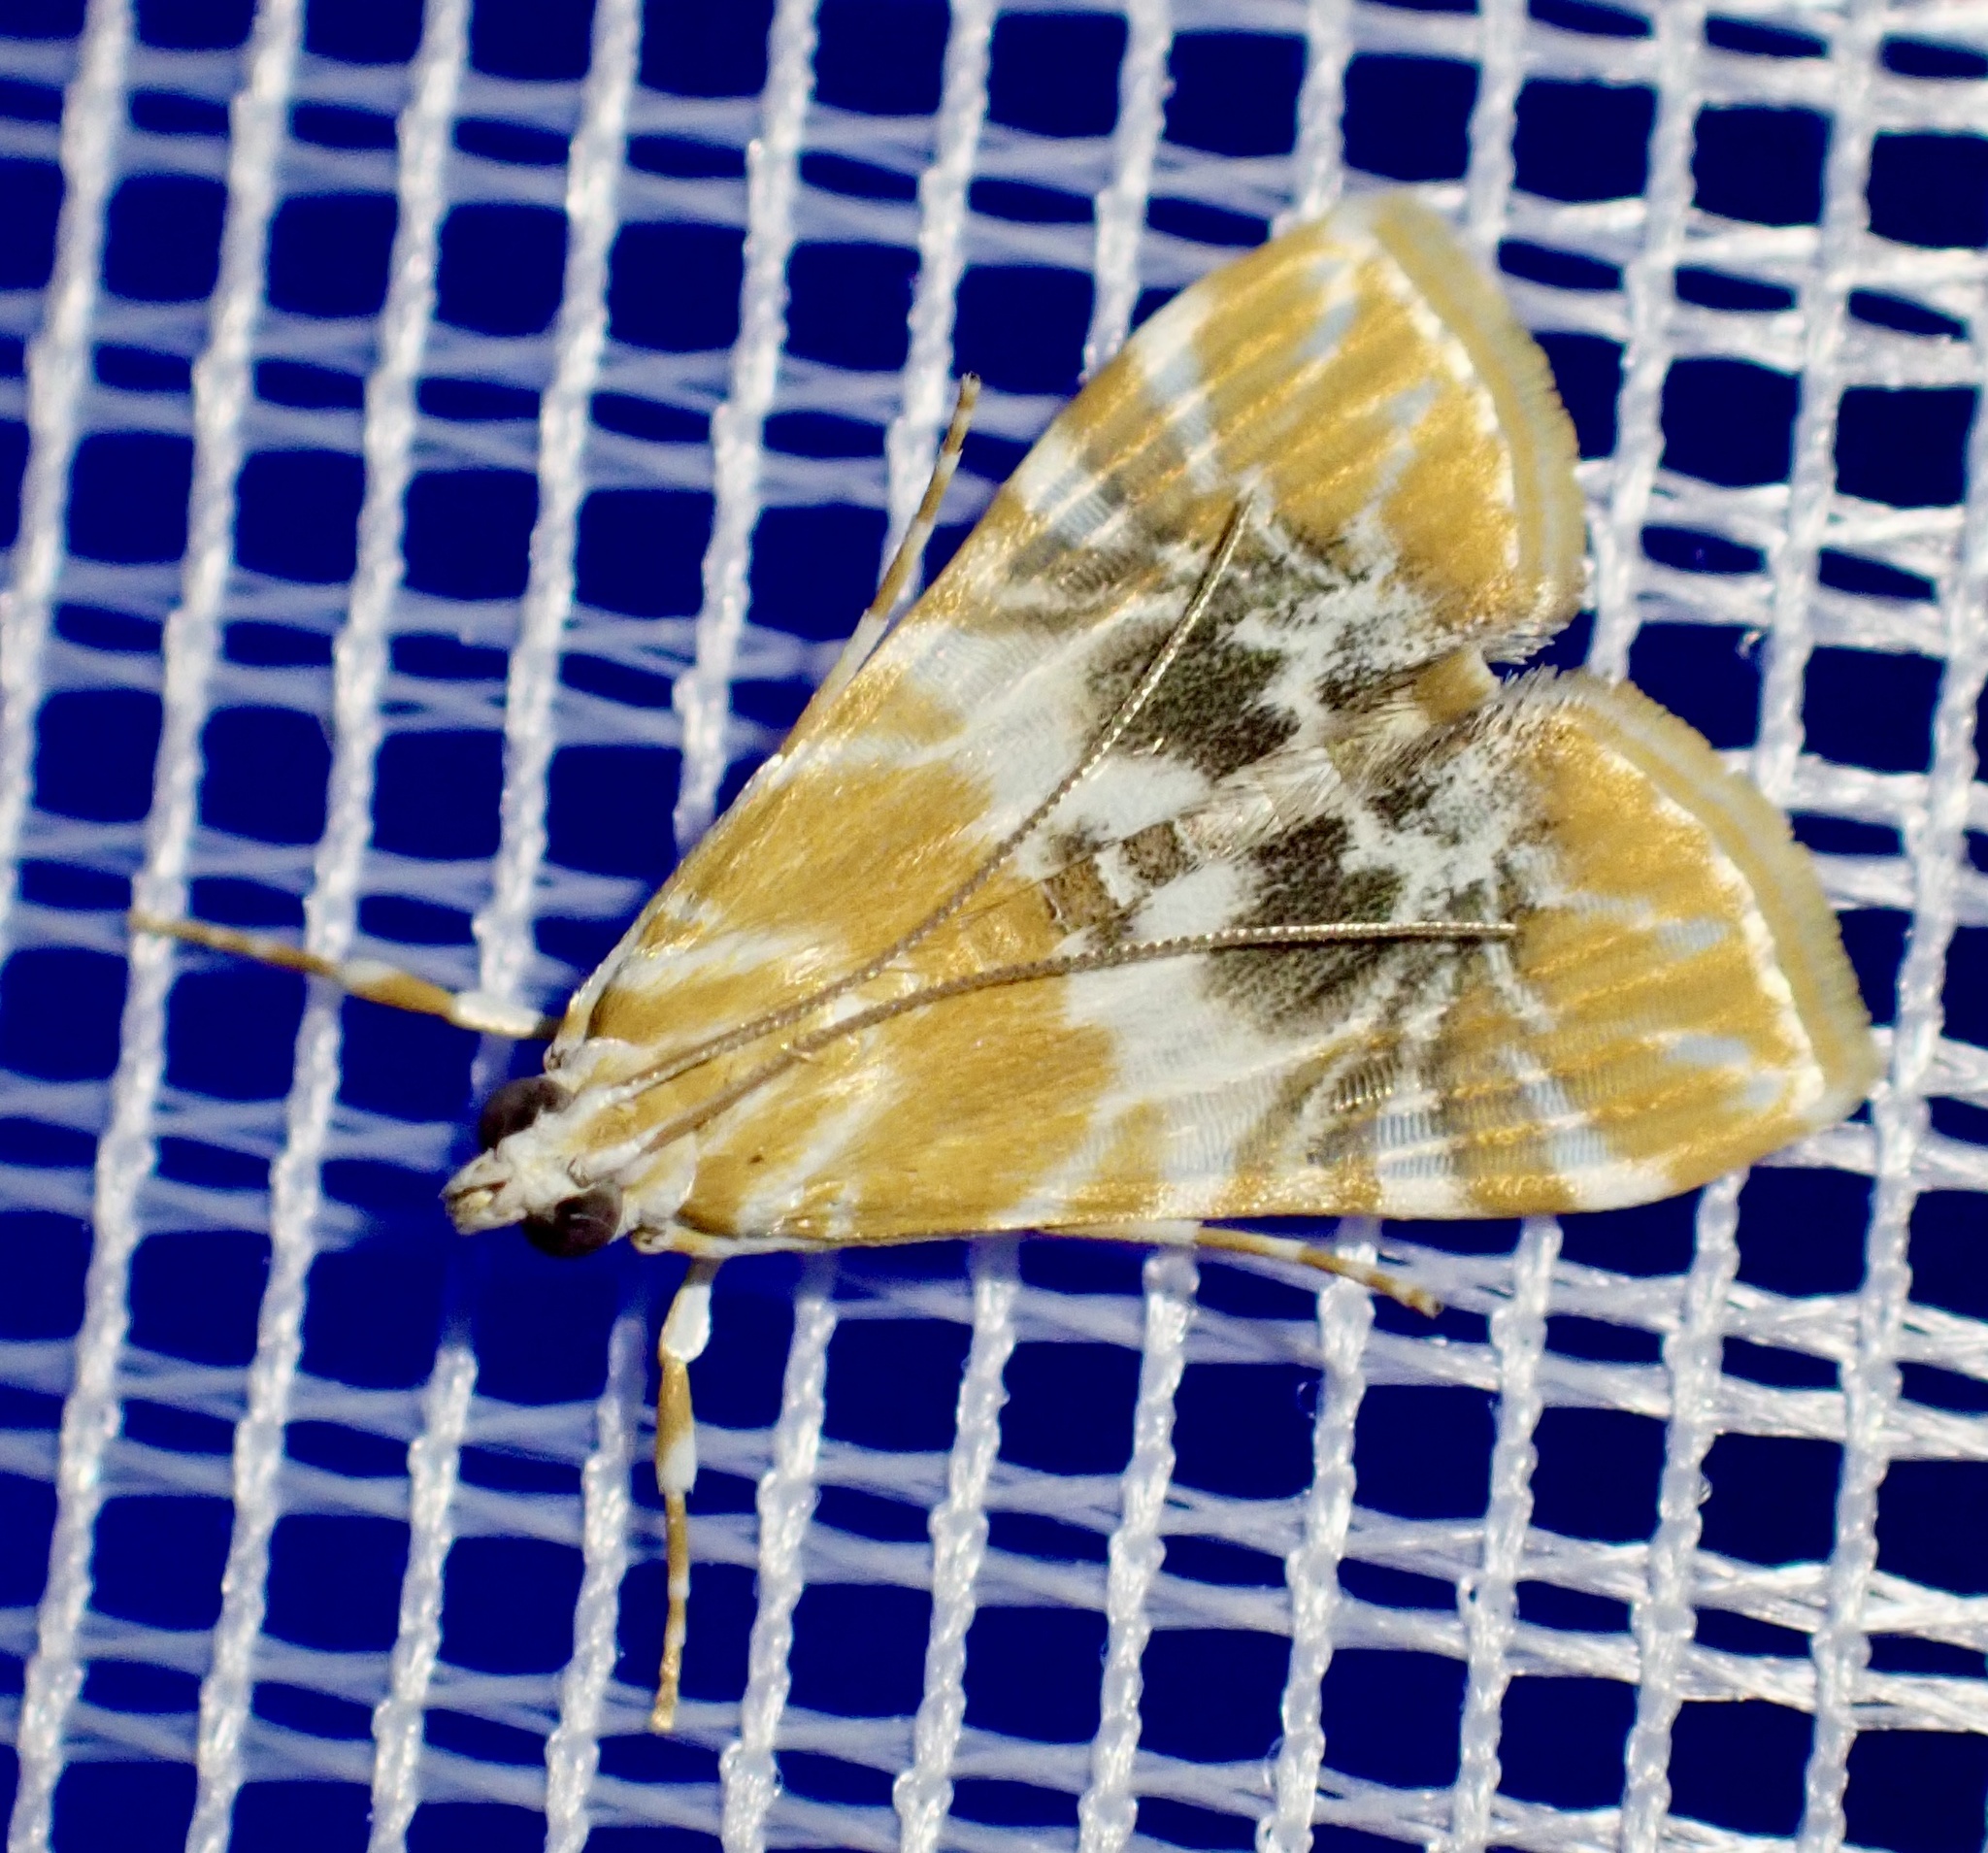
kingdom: Animalia
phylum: Arthropoda
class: Insecta
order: Lepidoptera
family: Crambidae
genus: Macaretaera
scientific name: Macaretaera hesperis
